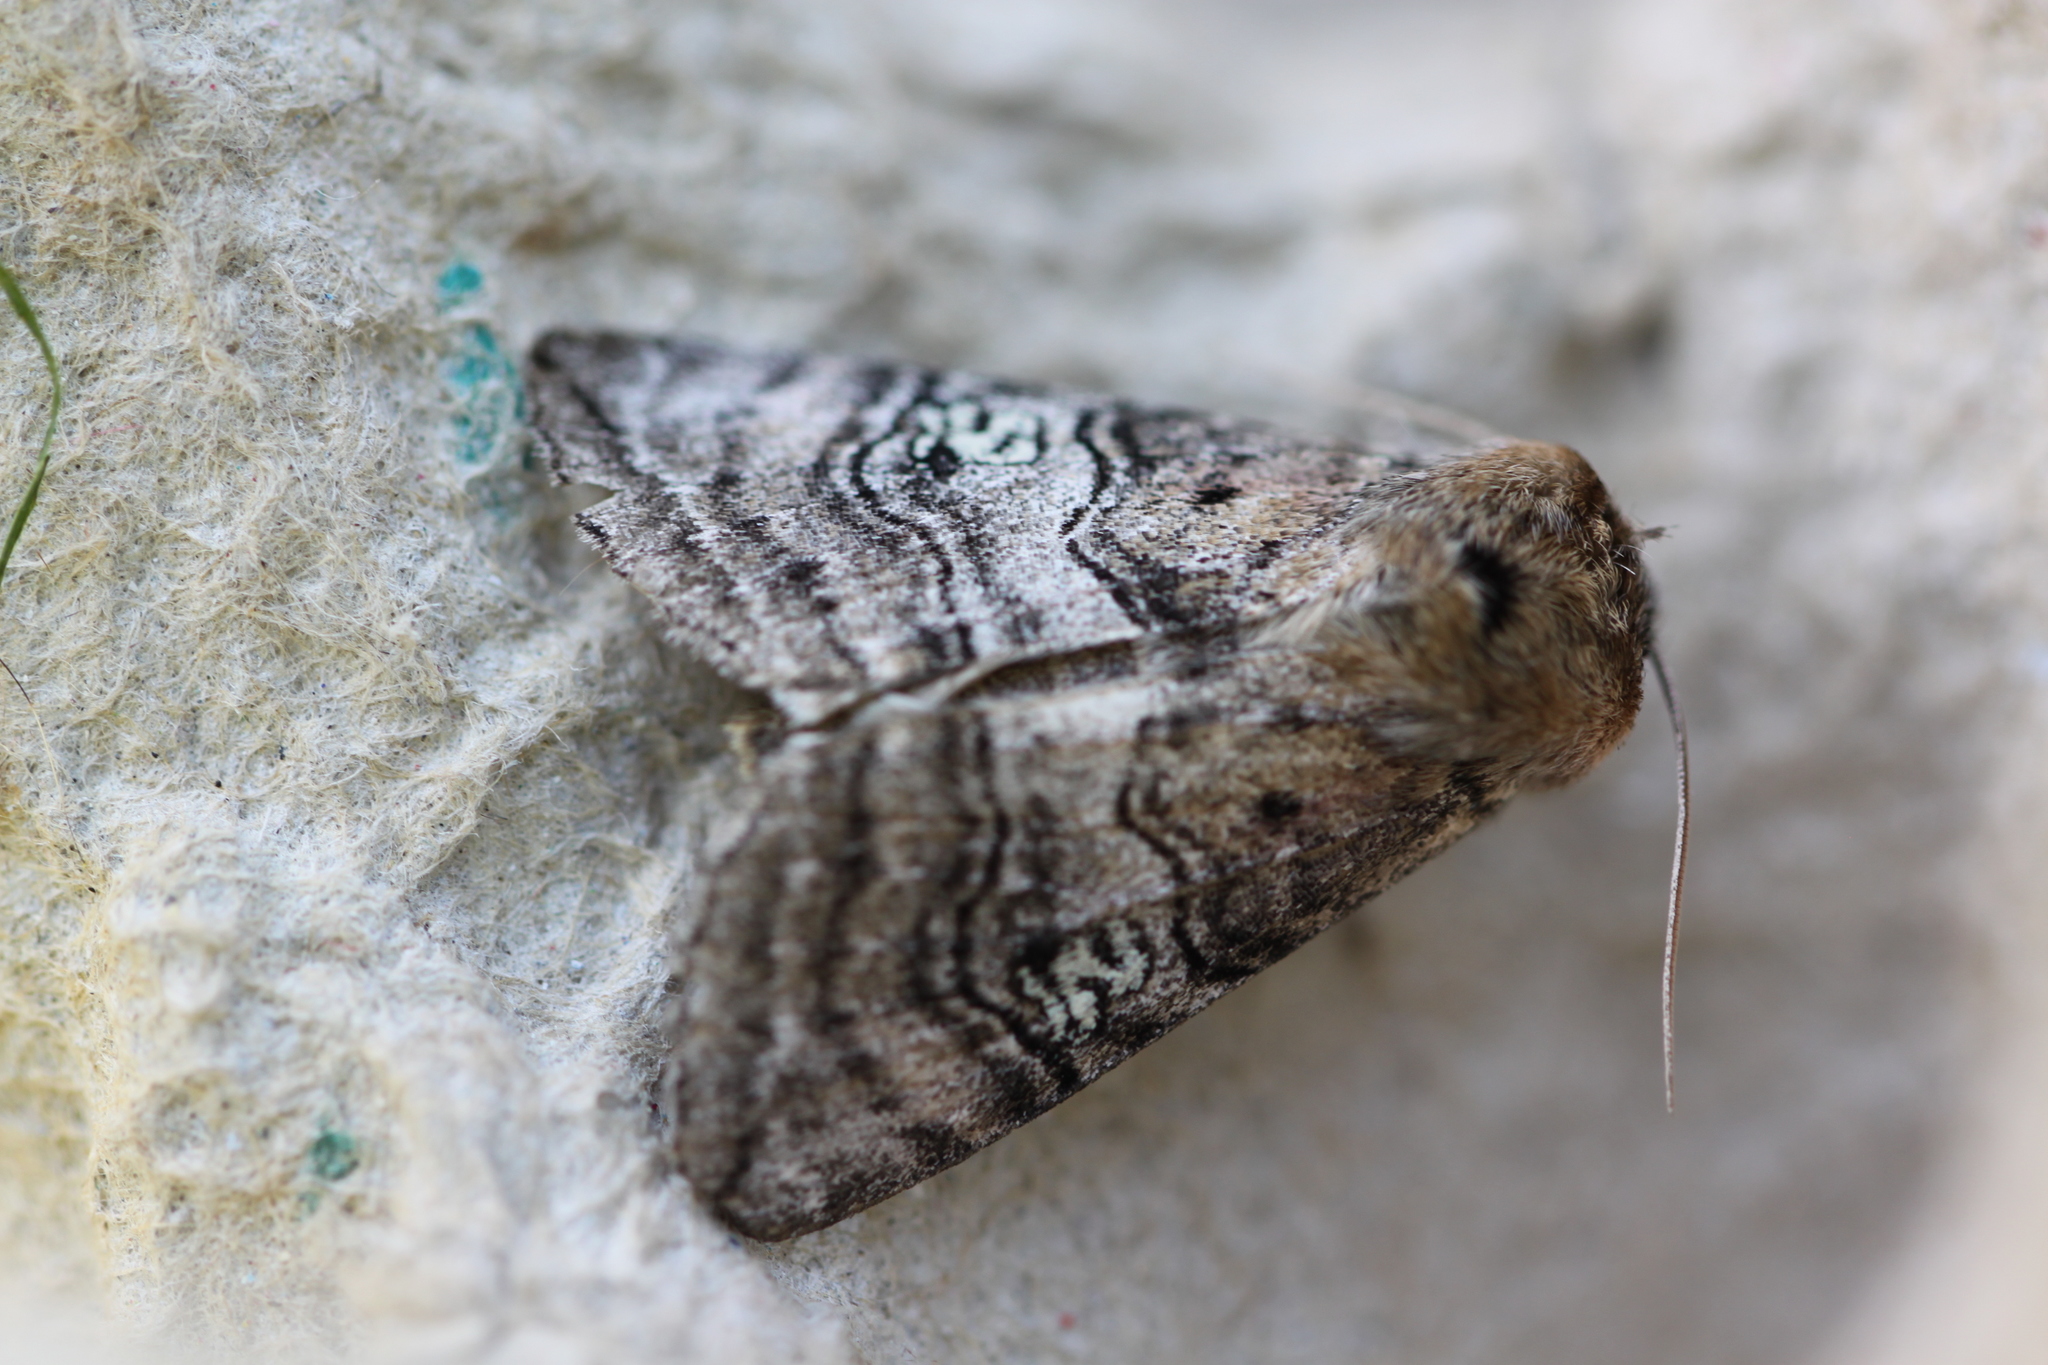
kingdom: Animalia
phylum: Arthropoda
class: Insecta
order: Lepidoptera
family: Drepanidae
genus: Tethea
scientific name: Tethea ocularis
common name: Figure of eighty
